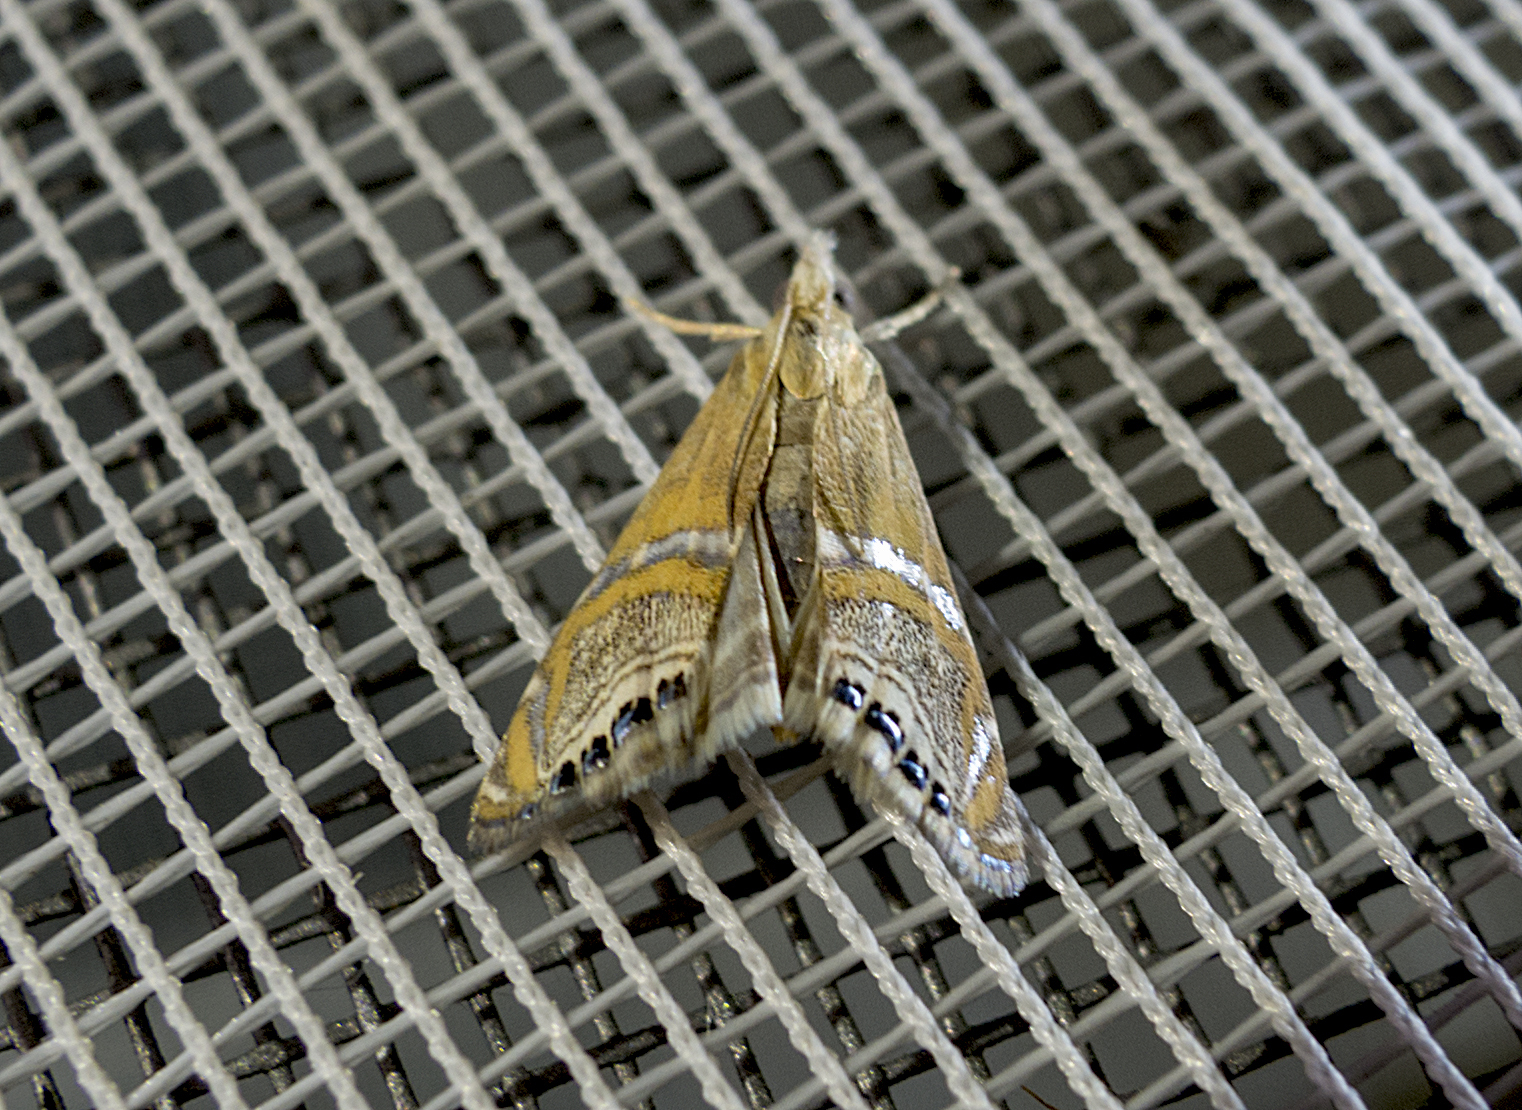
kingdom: Animalia
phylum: Arthropoda
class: Insecta
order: Lepidoptera
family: Crambidae
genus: Euchromius
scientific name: Euchromius bella
